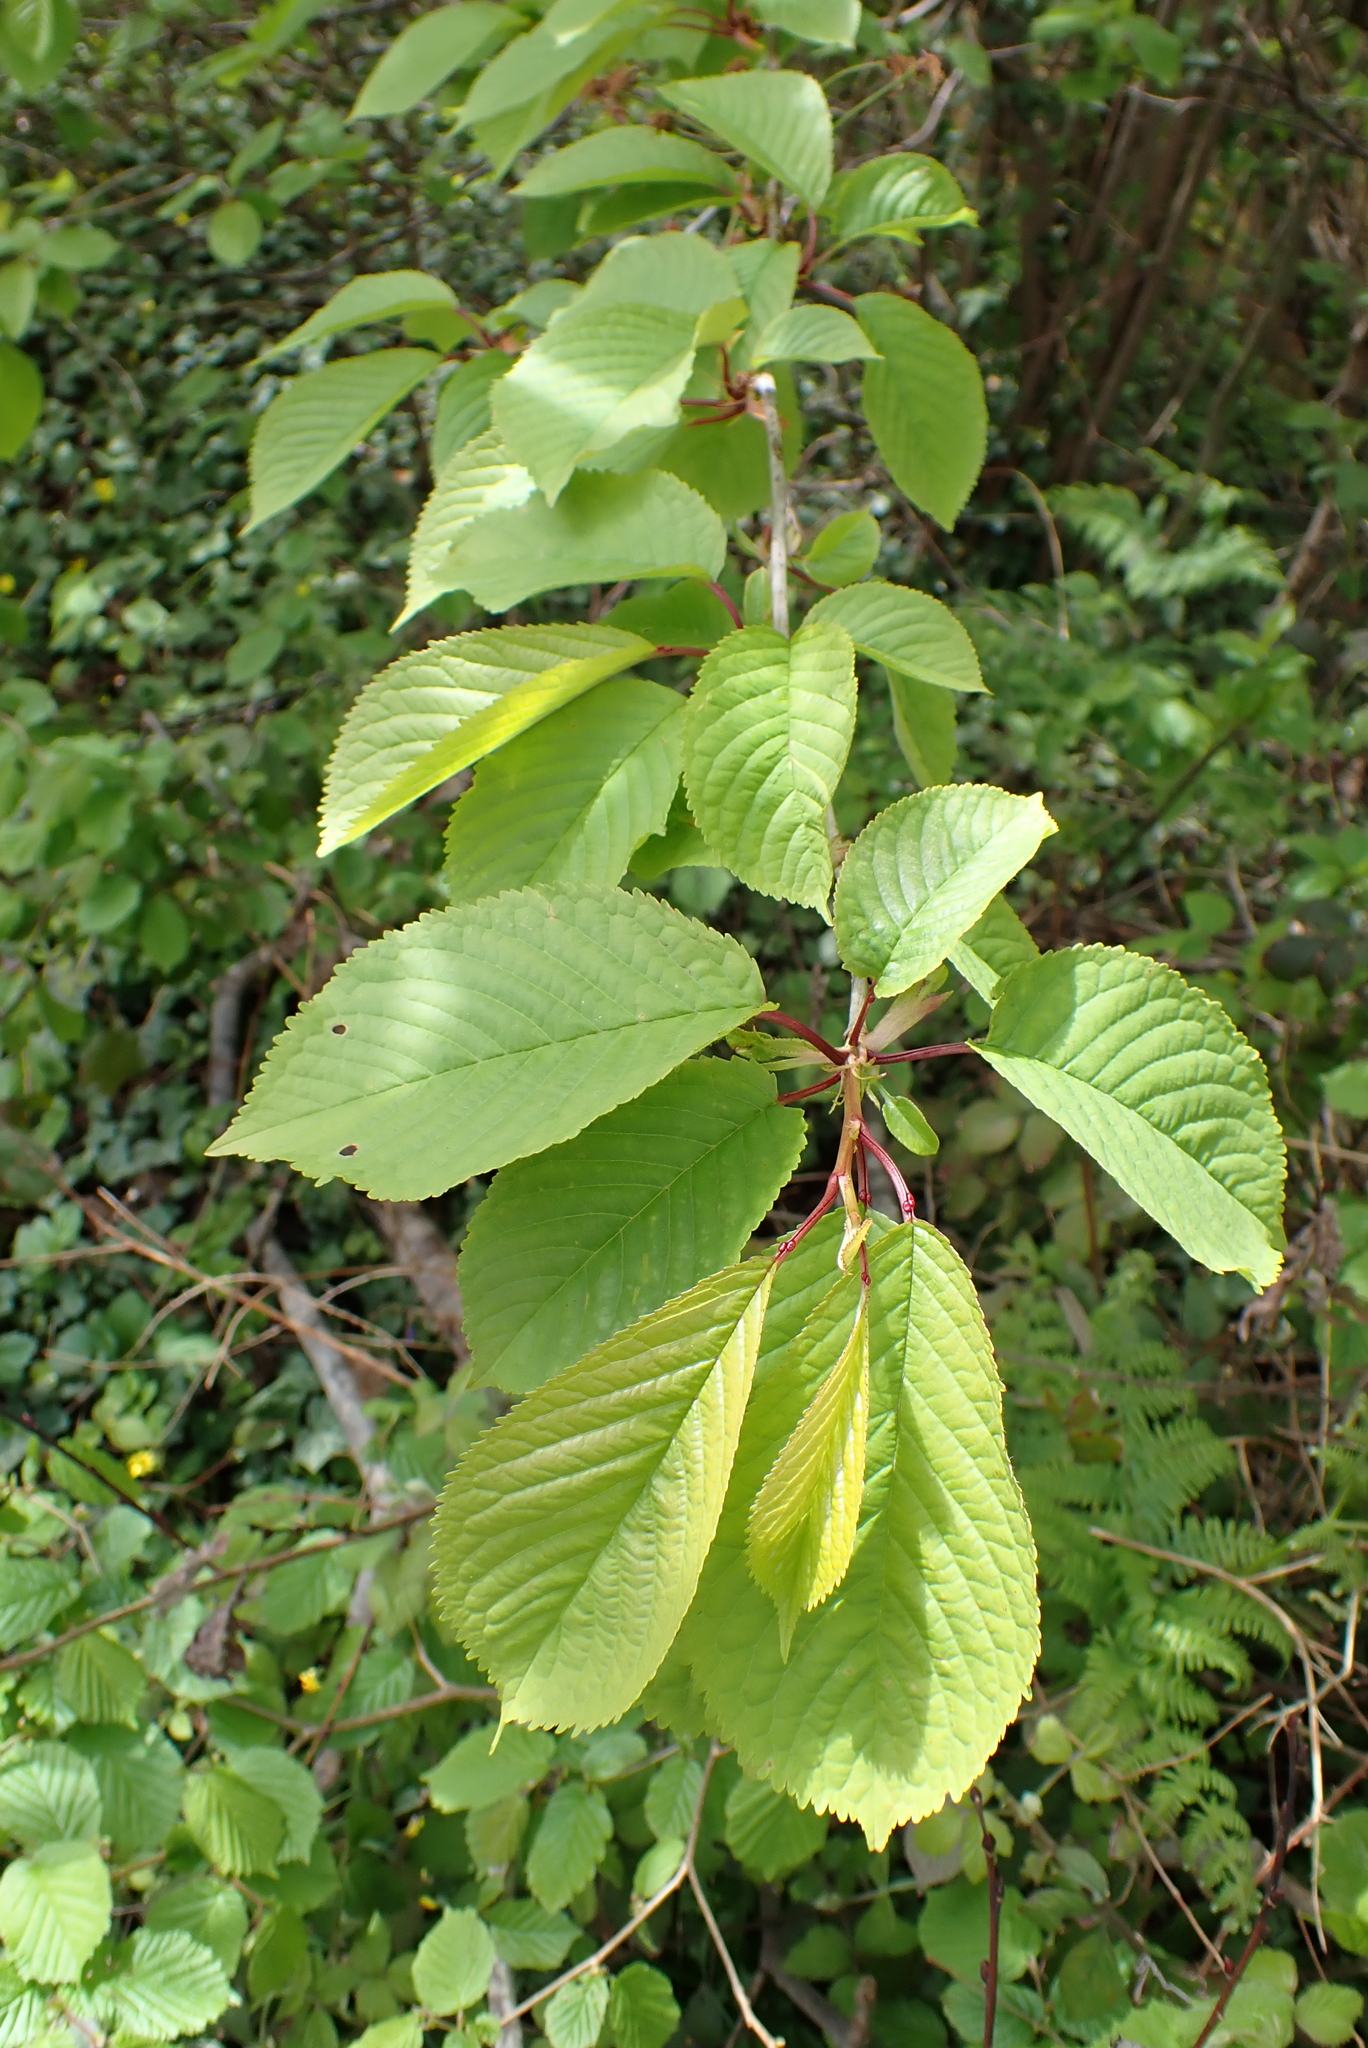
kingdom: Plantae
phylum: Tracheophyta
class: Magnoliopsida
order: Rosales
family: Rosaceae
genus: Prunus
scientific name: Prunus avium
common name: Sweet cherry
